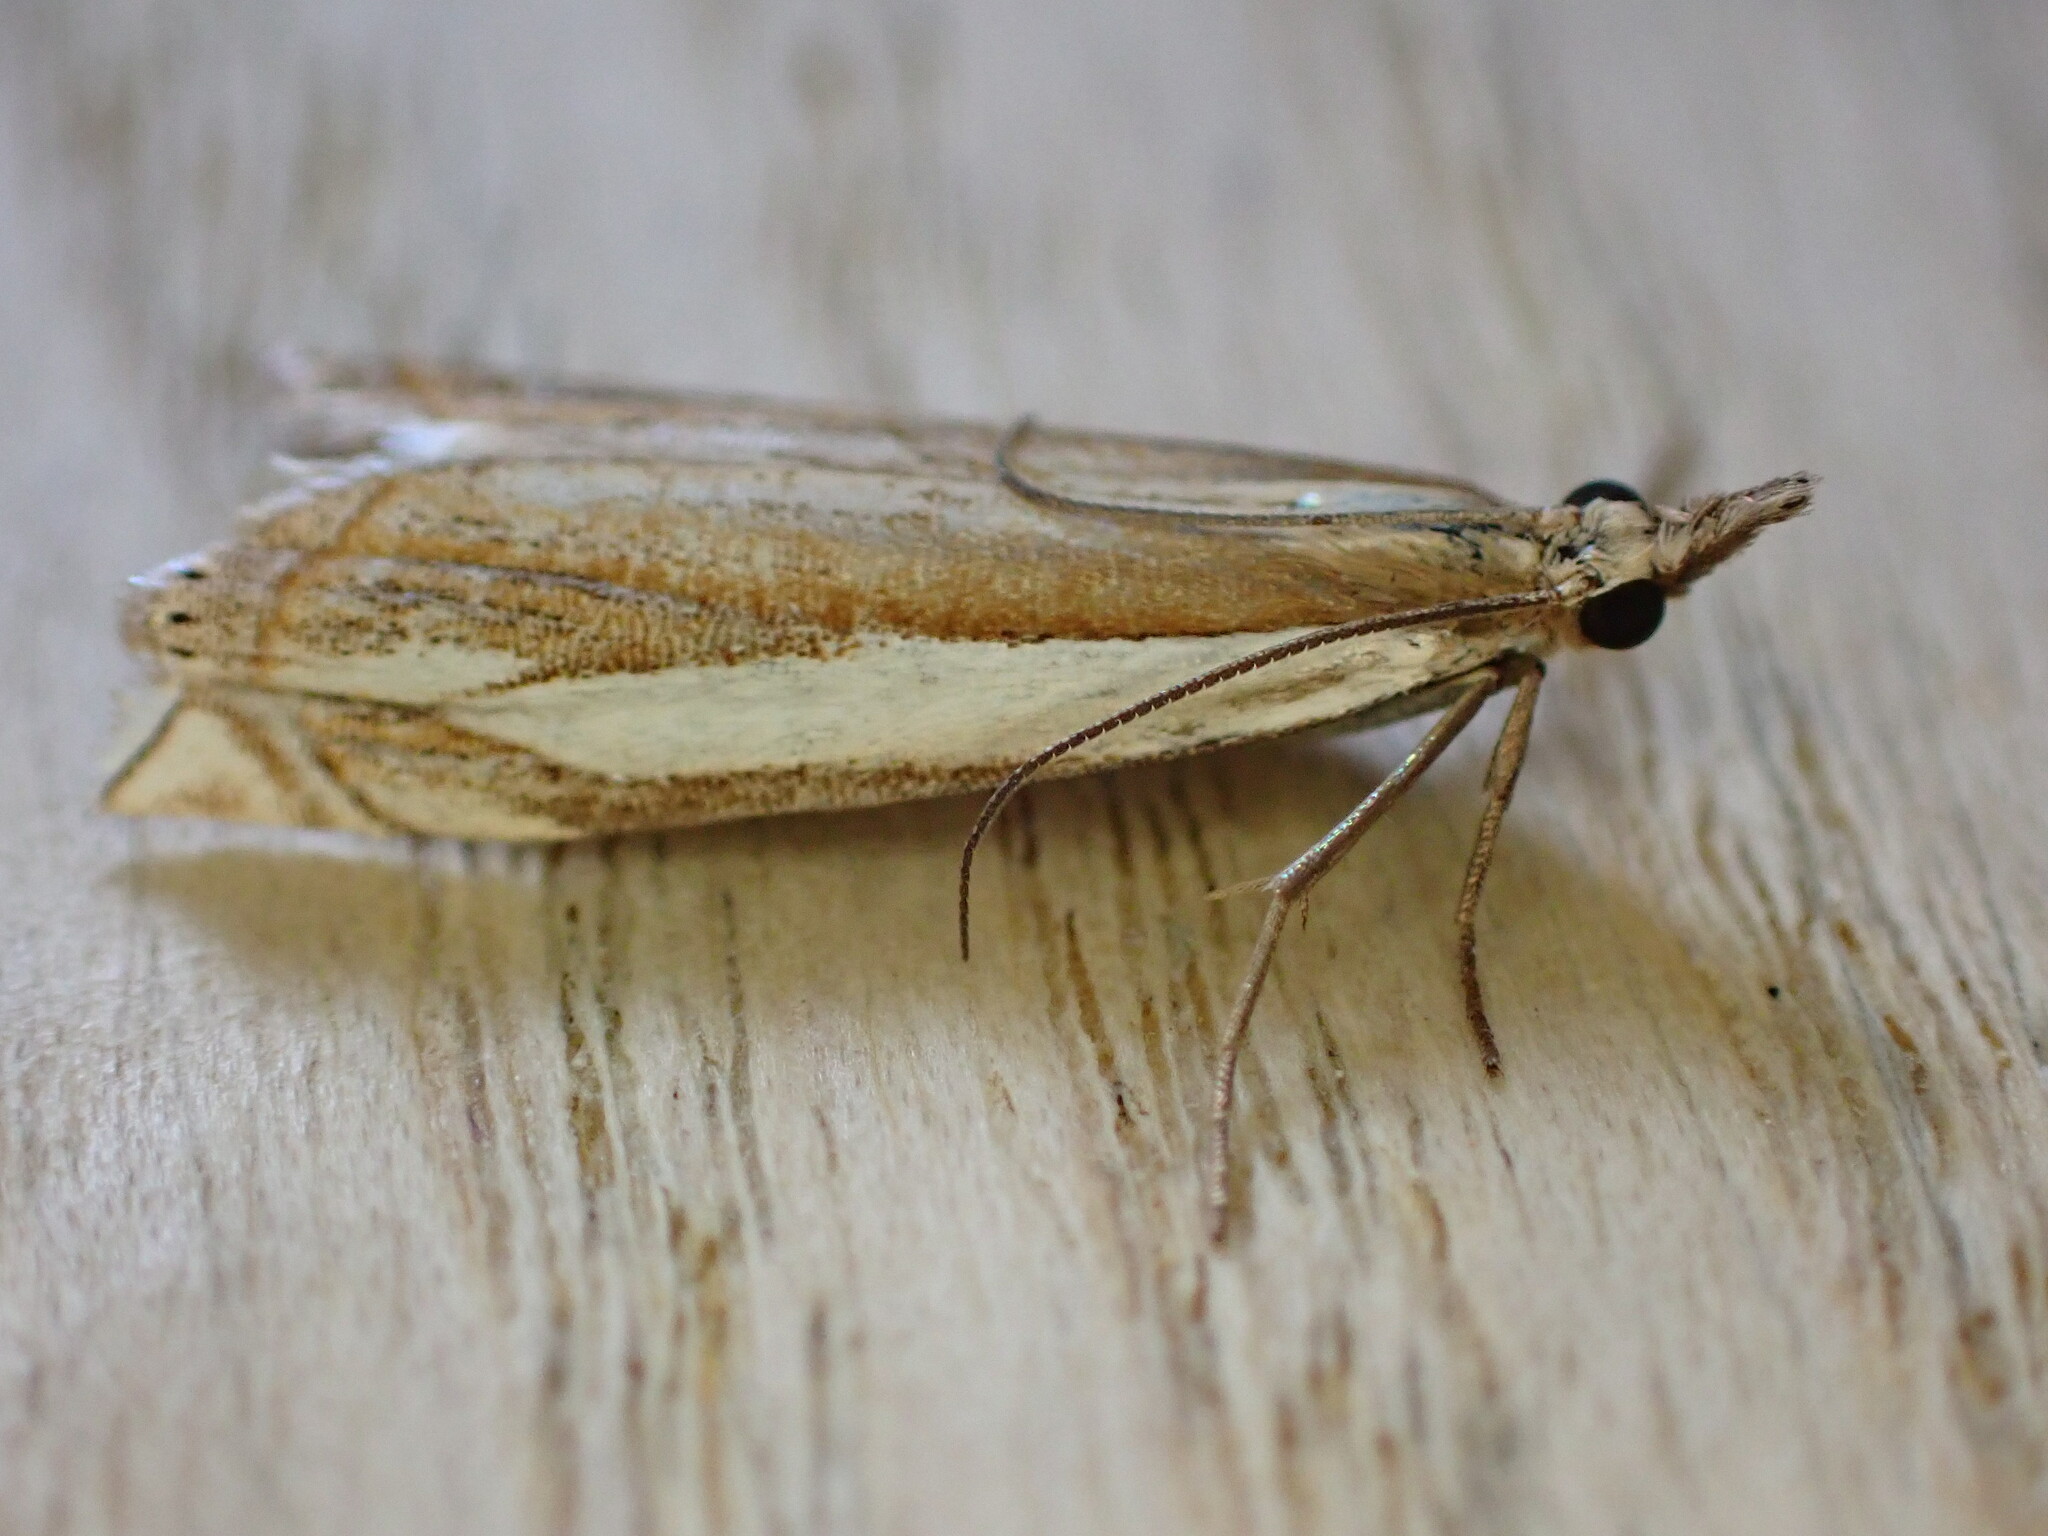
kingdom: Animalia
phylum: Arthropoda
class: Insecta
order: Lepidoptera
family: Crambidae
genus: Crambus
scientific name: Crambus pascuella
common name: Inlaid grass-veneer
